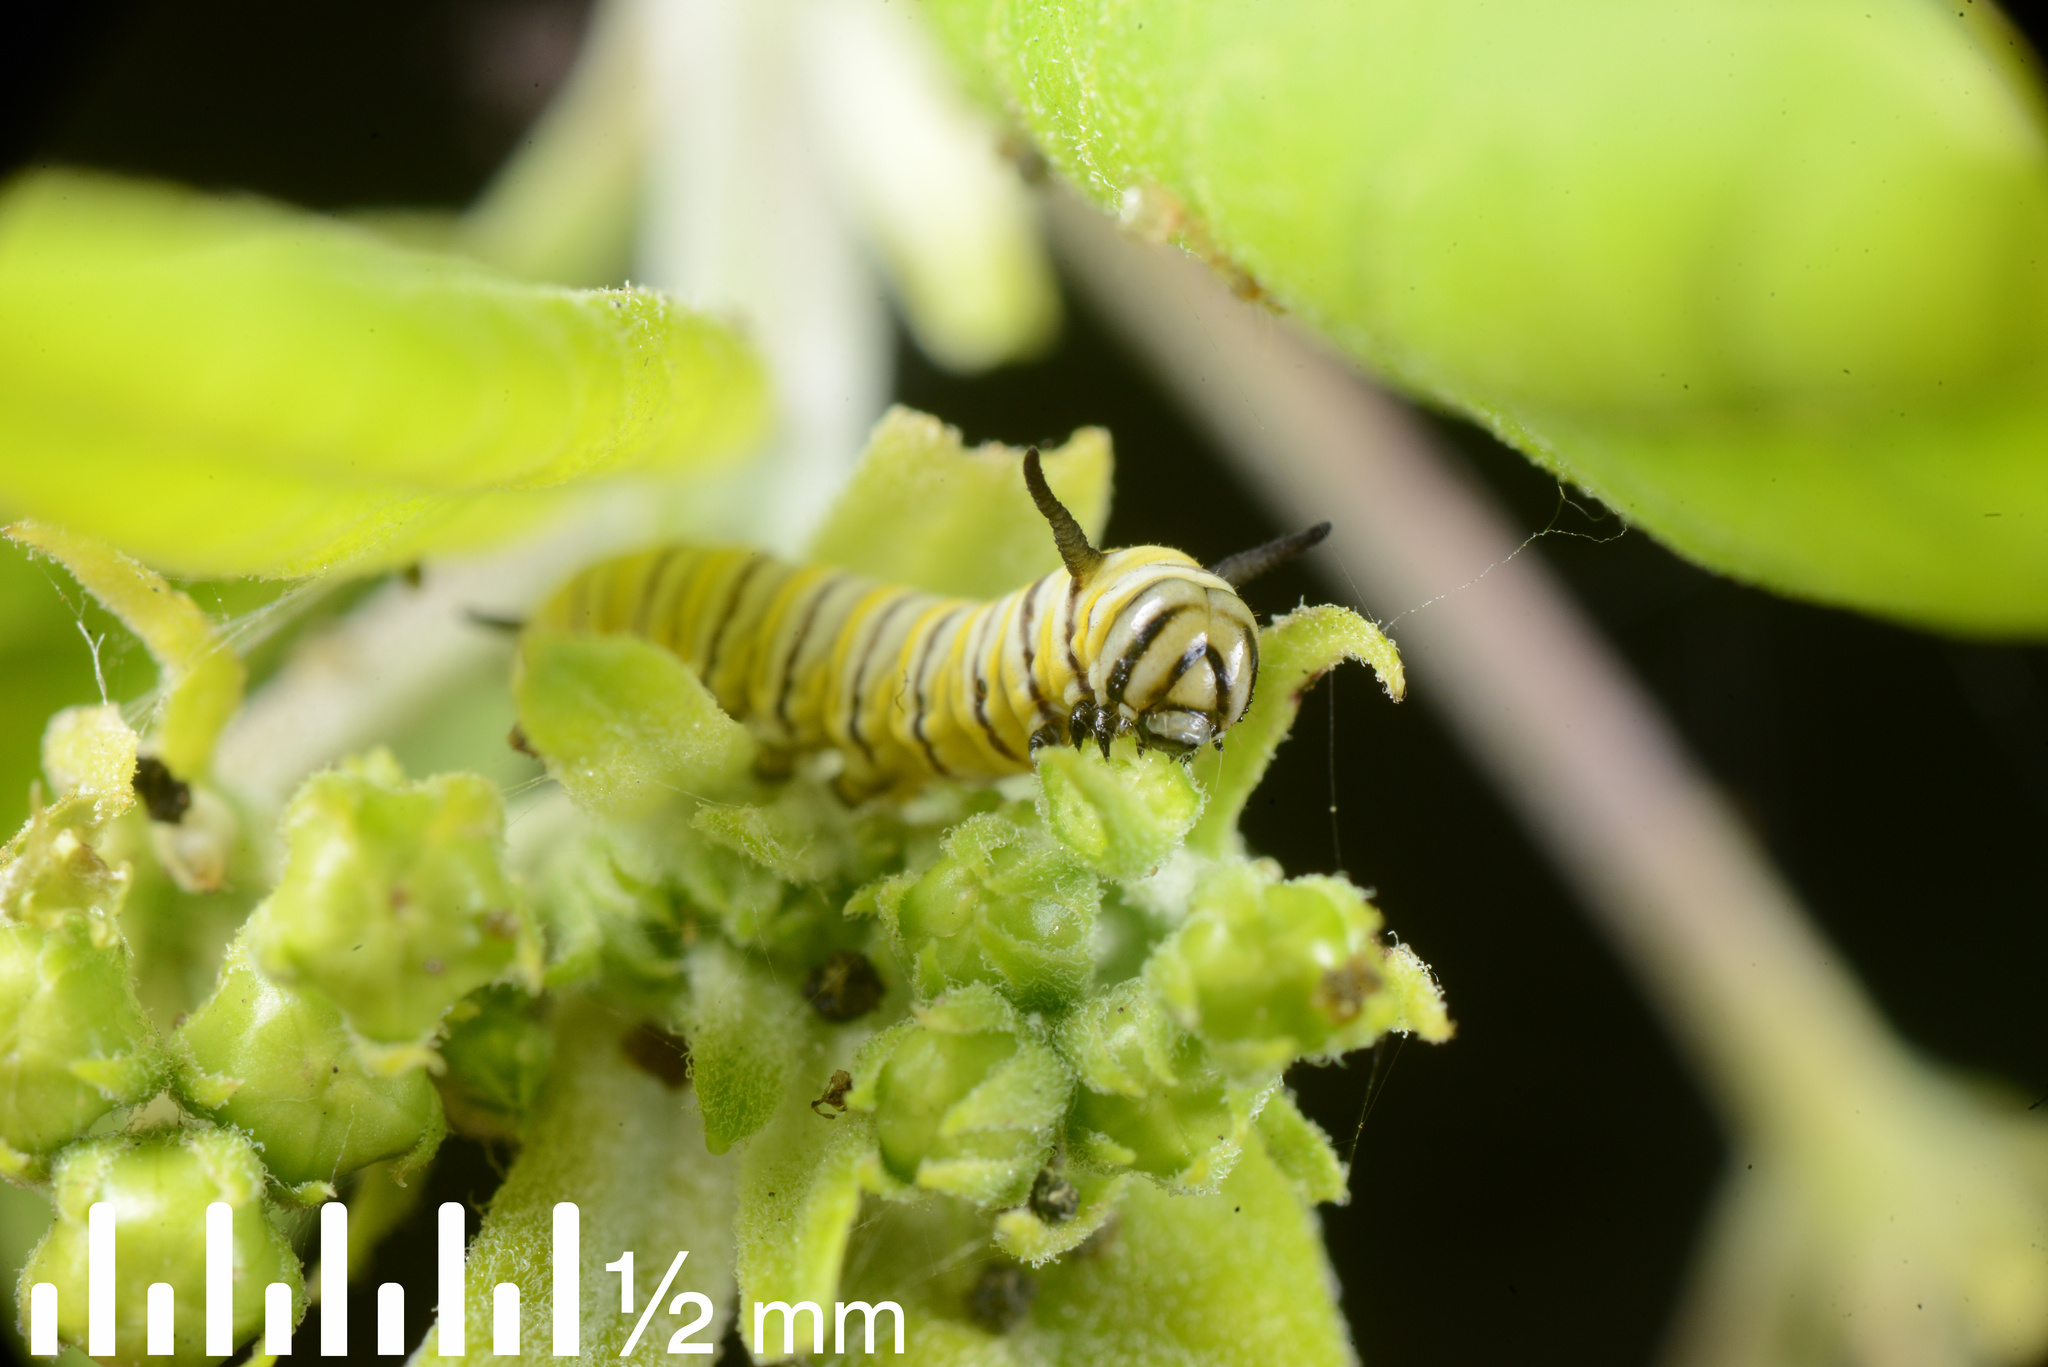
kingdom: Animalia
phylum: Arthropoda
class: Insecta
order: Lepidoptera
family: Nymphalidae
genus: Danaus
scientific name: Danaus plexippus
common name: Monarch
